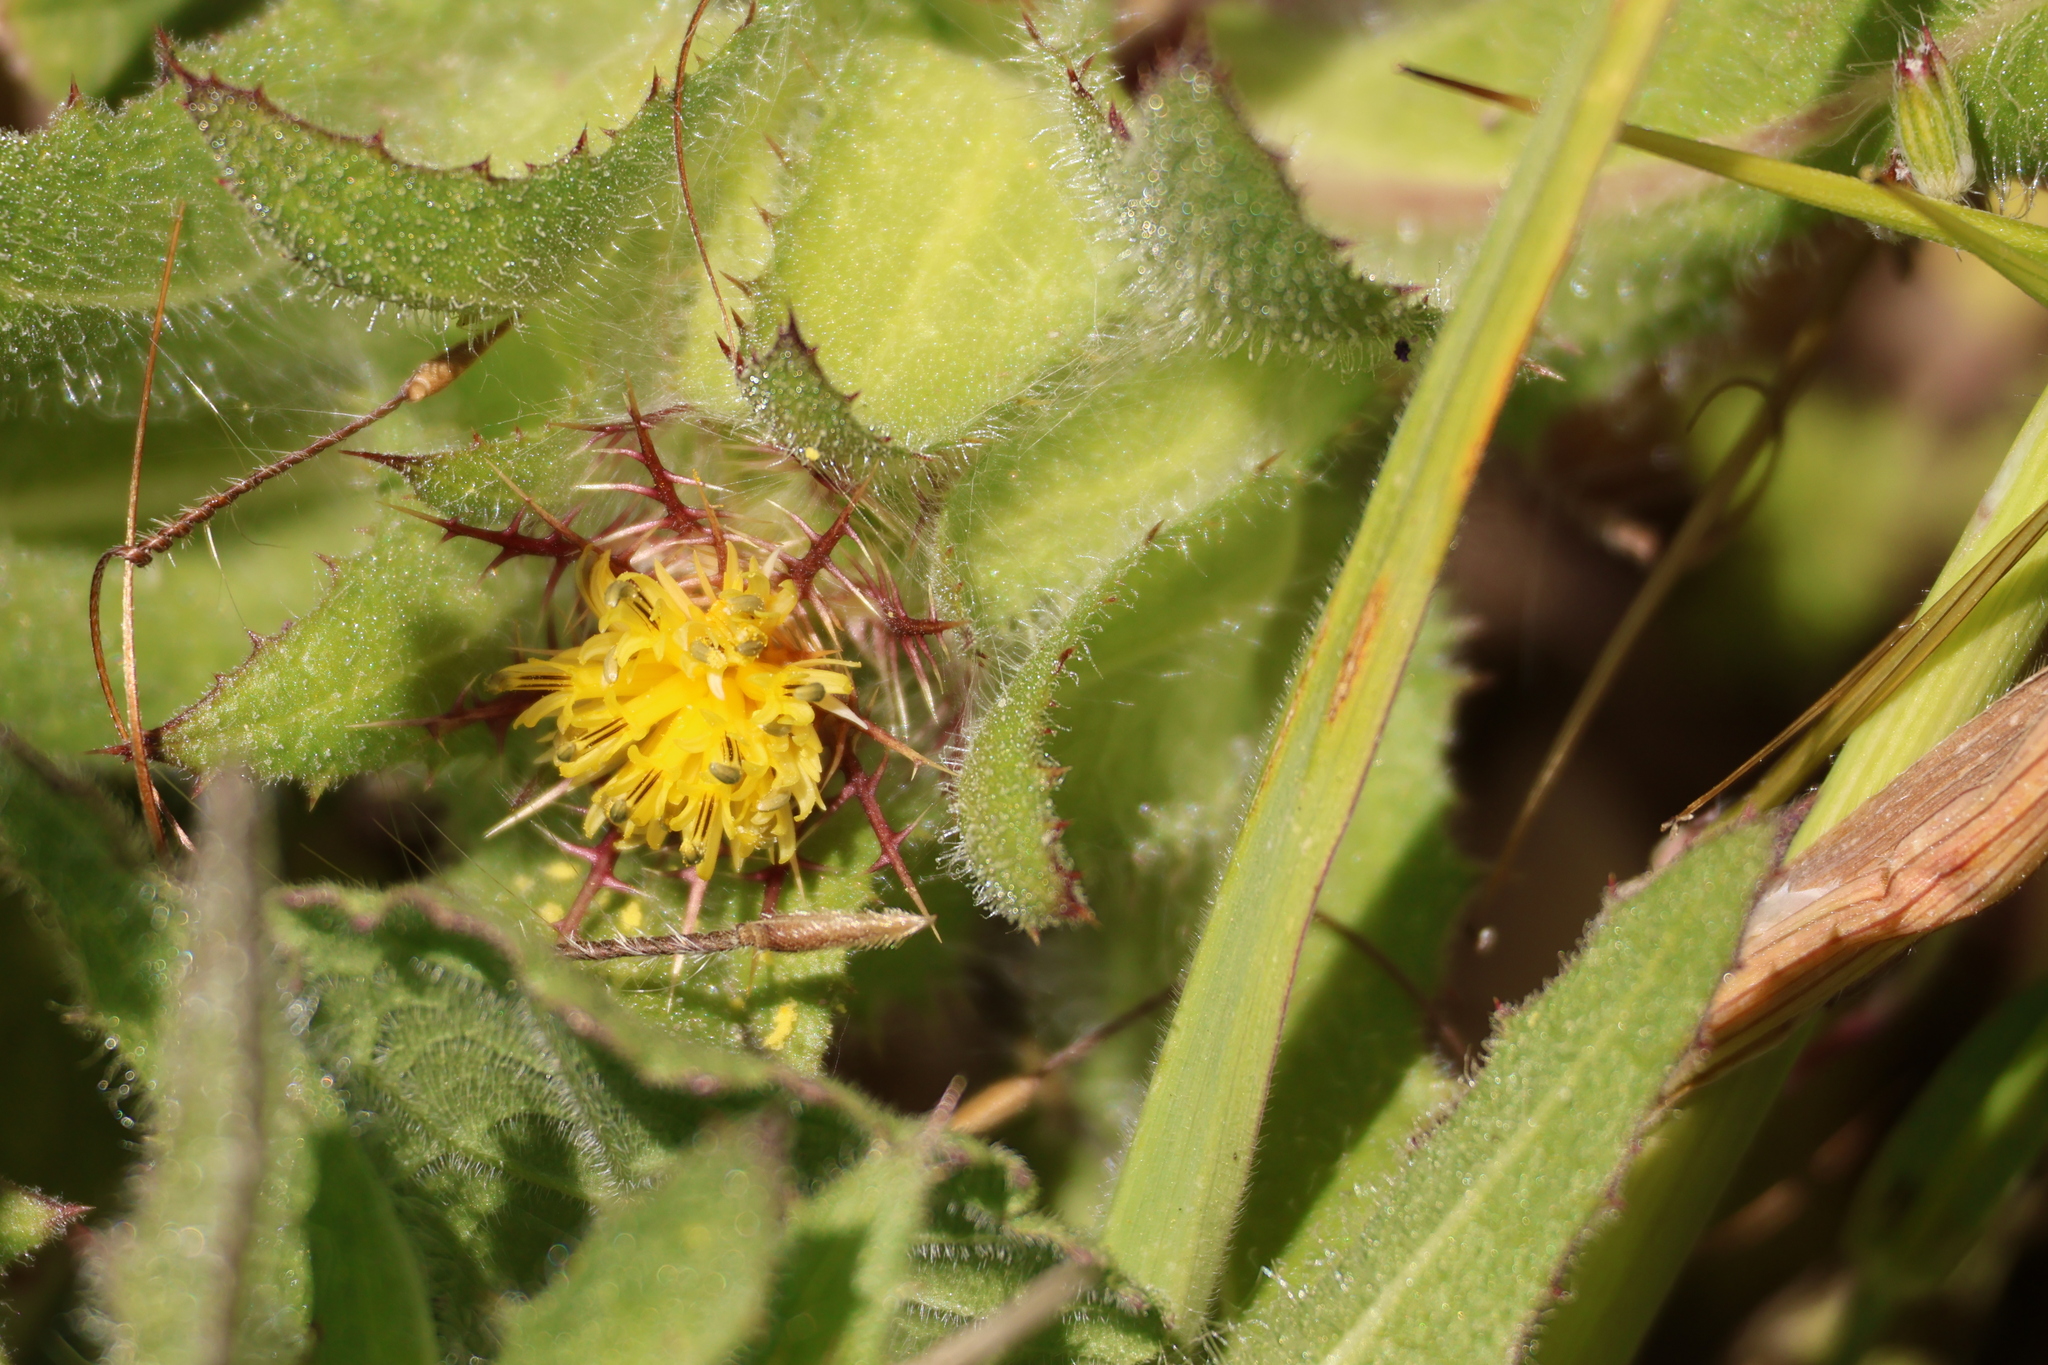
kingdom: Plantae
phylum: Tracheophyta
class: Magnoliopsida
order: Asterales
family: Asteraceae
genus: Centaurea
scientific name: Centaurea benedicta
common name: Blessed thistle
